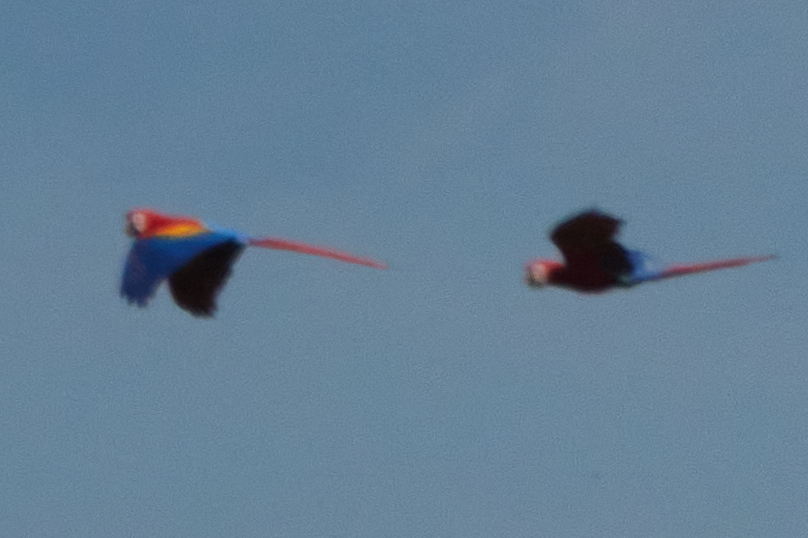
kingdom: Animalia
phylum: Chordata
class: Aves
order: Psittaciformes
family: Psittacidae
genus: Ara
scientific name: Ara macao
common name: Scarlet macaw
